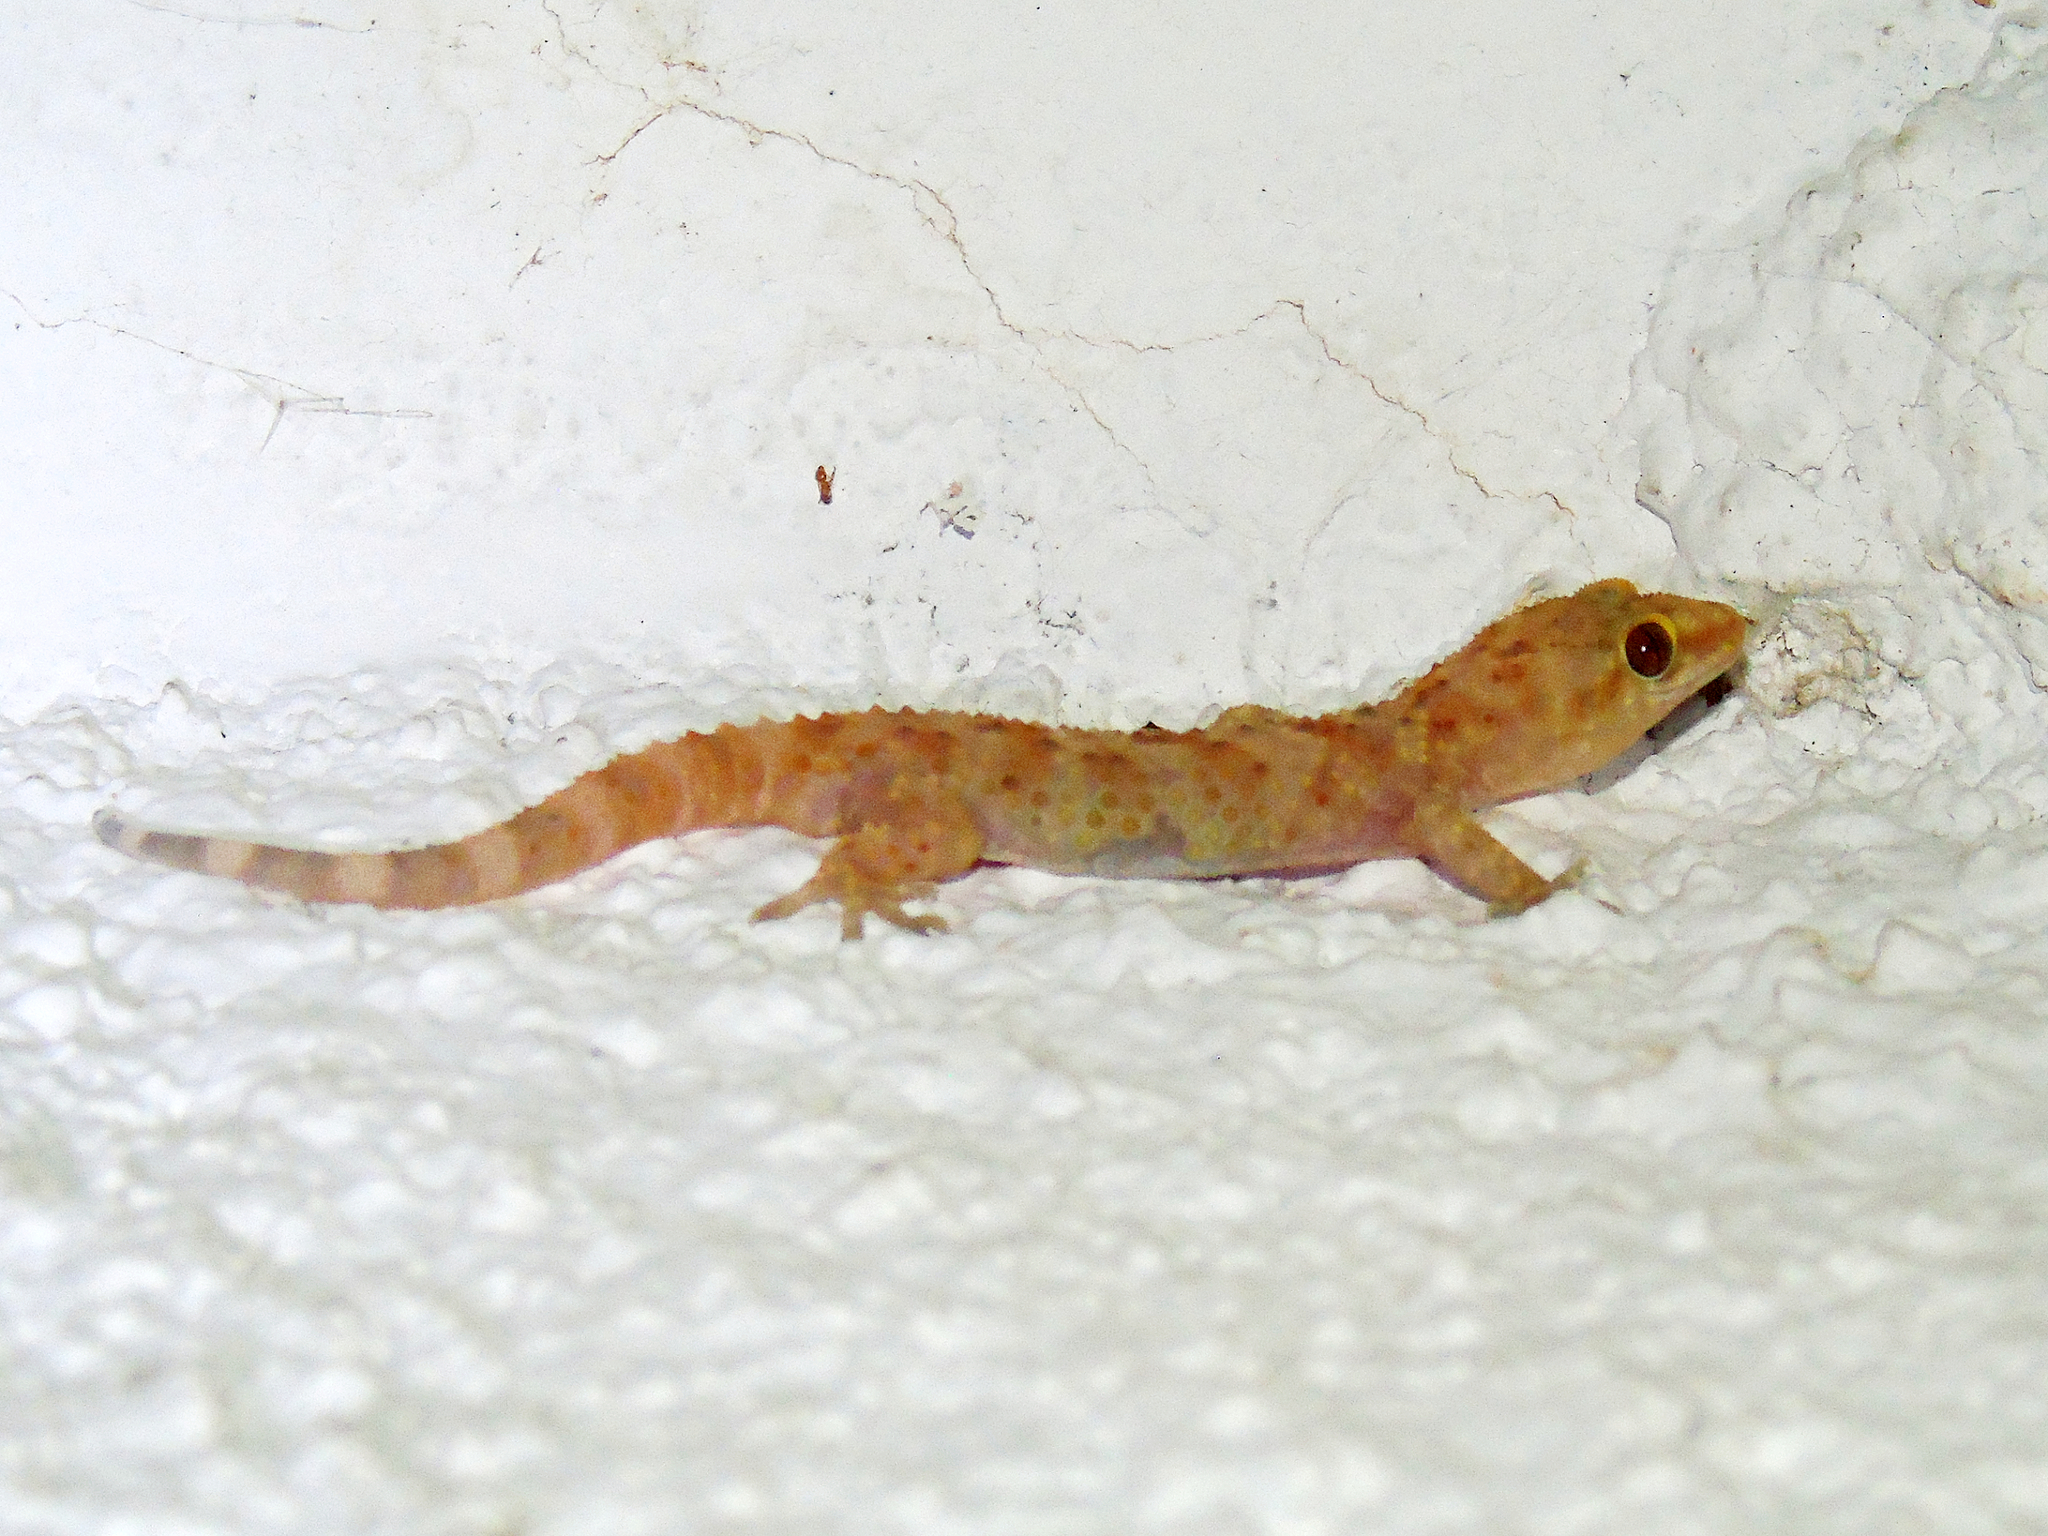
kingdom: Animalia
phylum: Chordata
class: Squamata
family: Gekkonidae
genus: Hemidactylus
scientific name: Hemidactylus turcicus
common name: Turkish gecko
